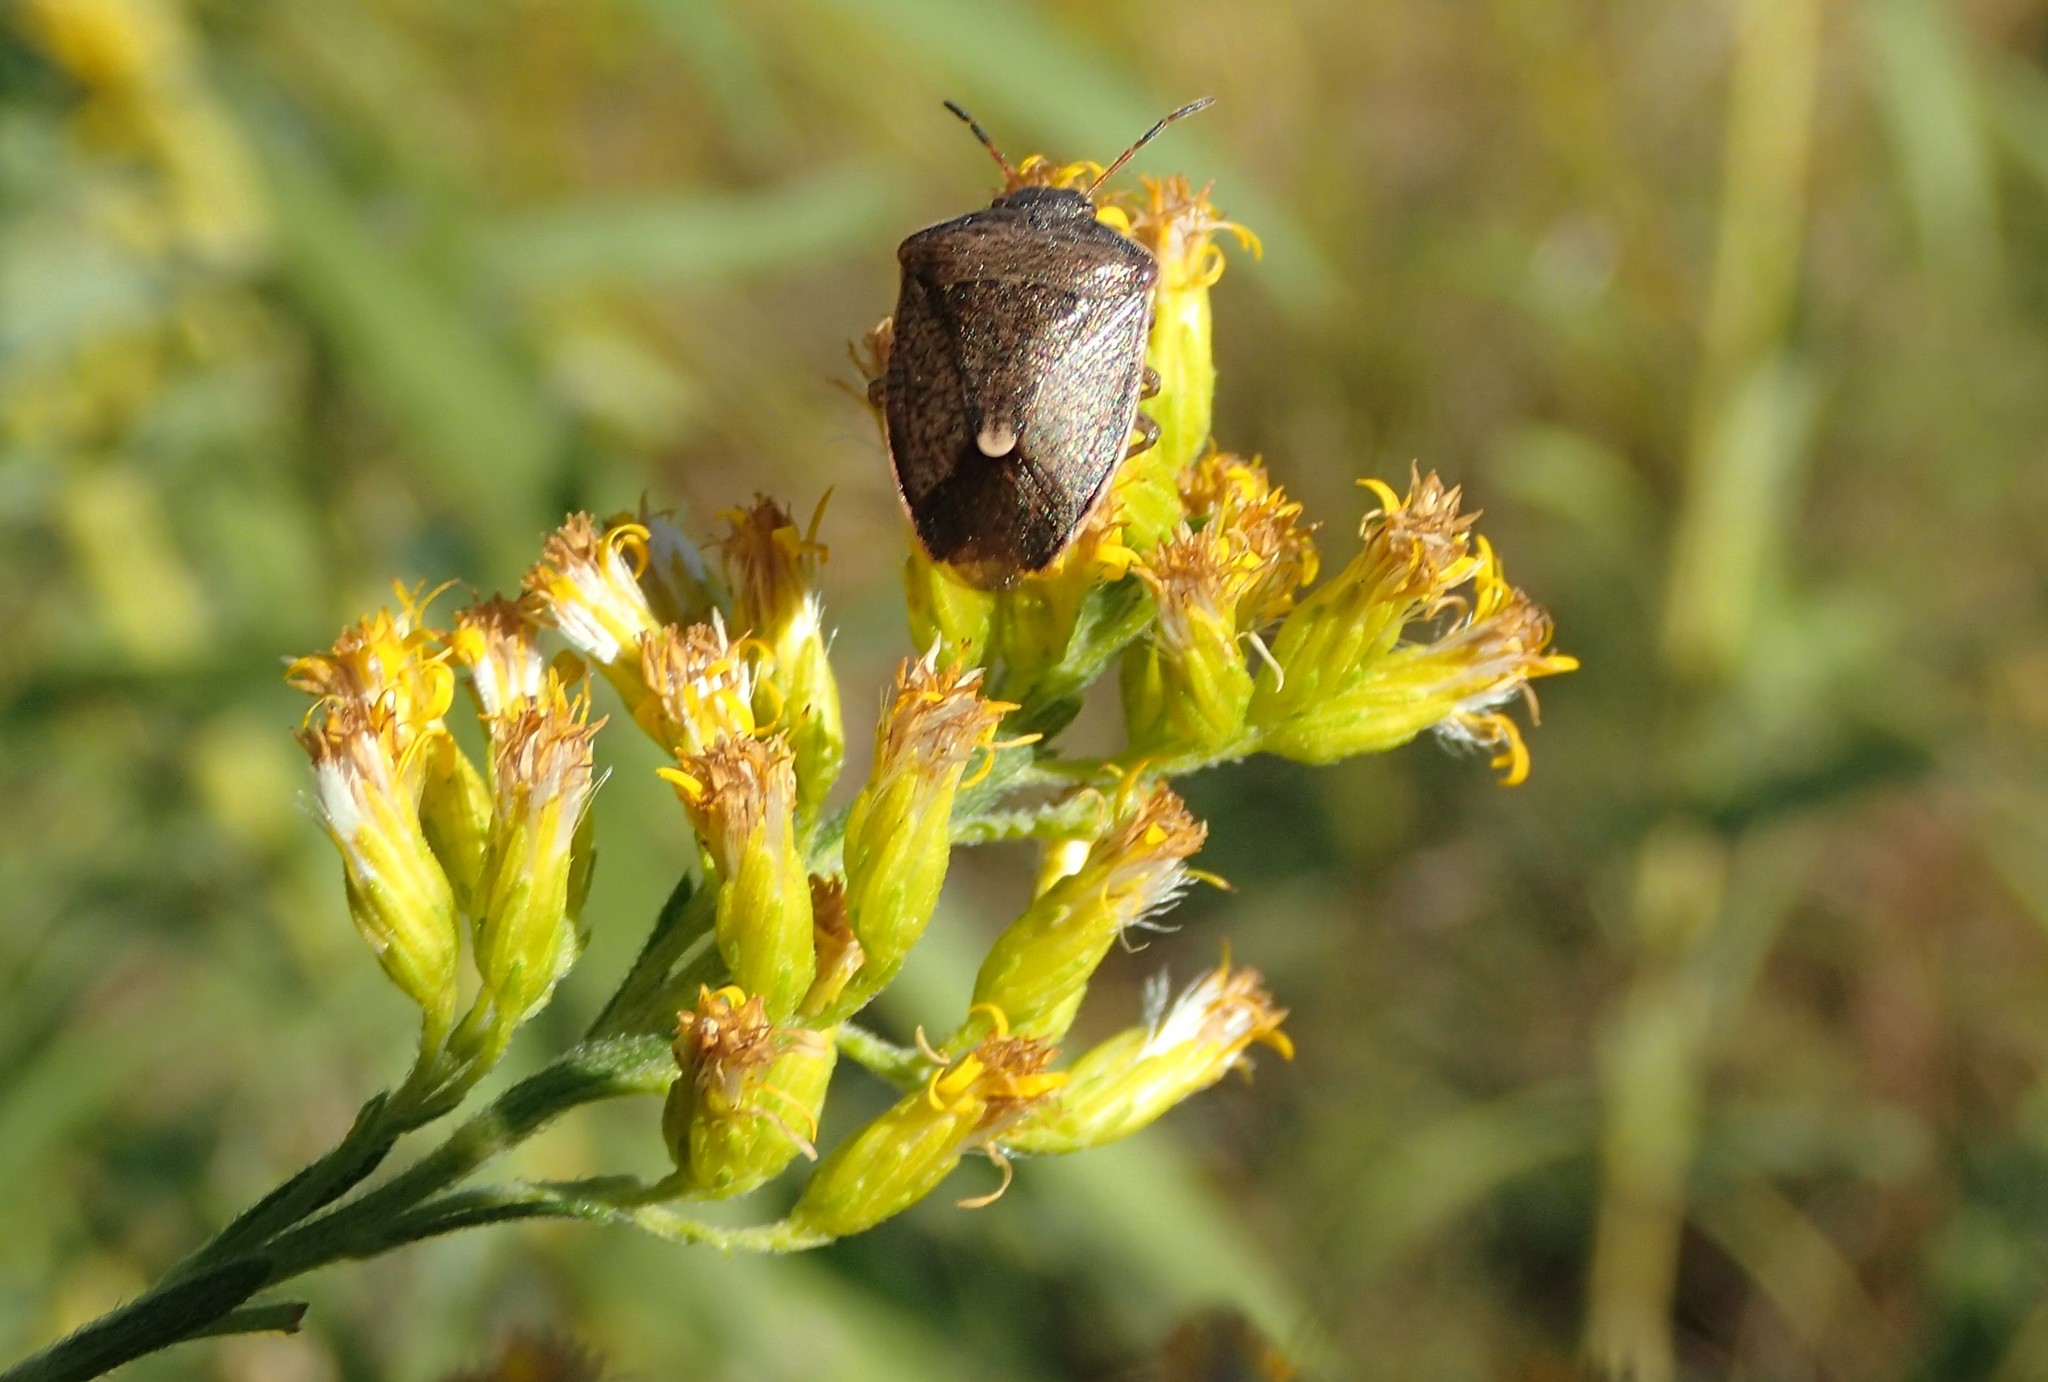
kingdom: Animalia
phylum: Arthropoda
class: Insecta
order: Hemiptera
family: Pentatomidae
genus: Holcostethus
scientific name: Holcostethus limbolarius
